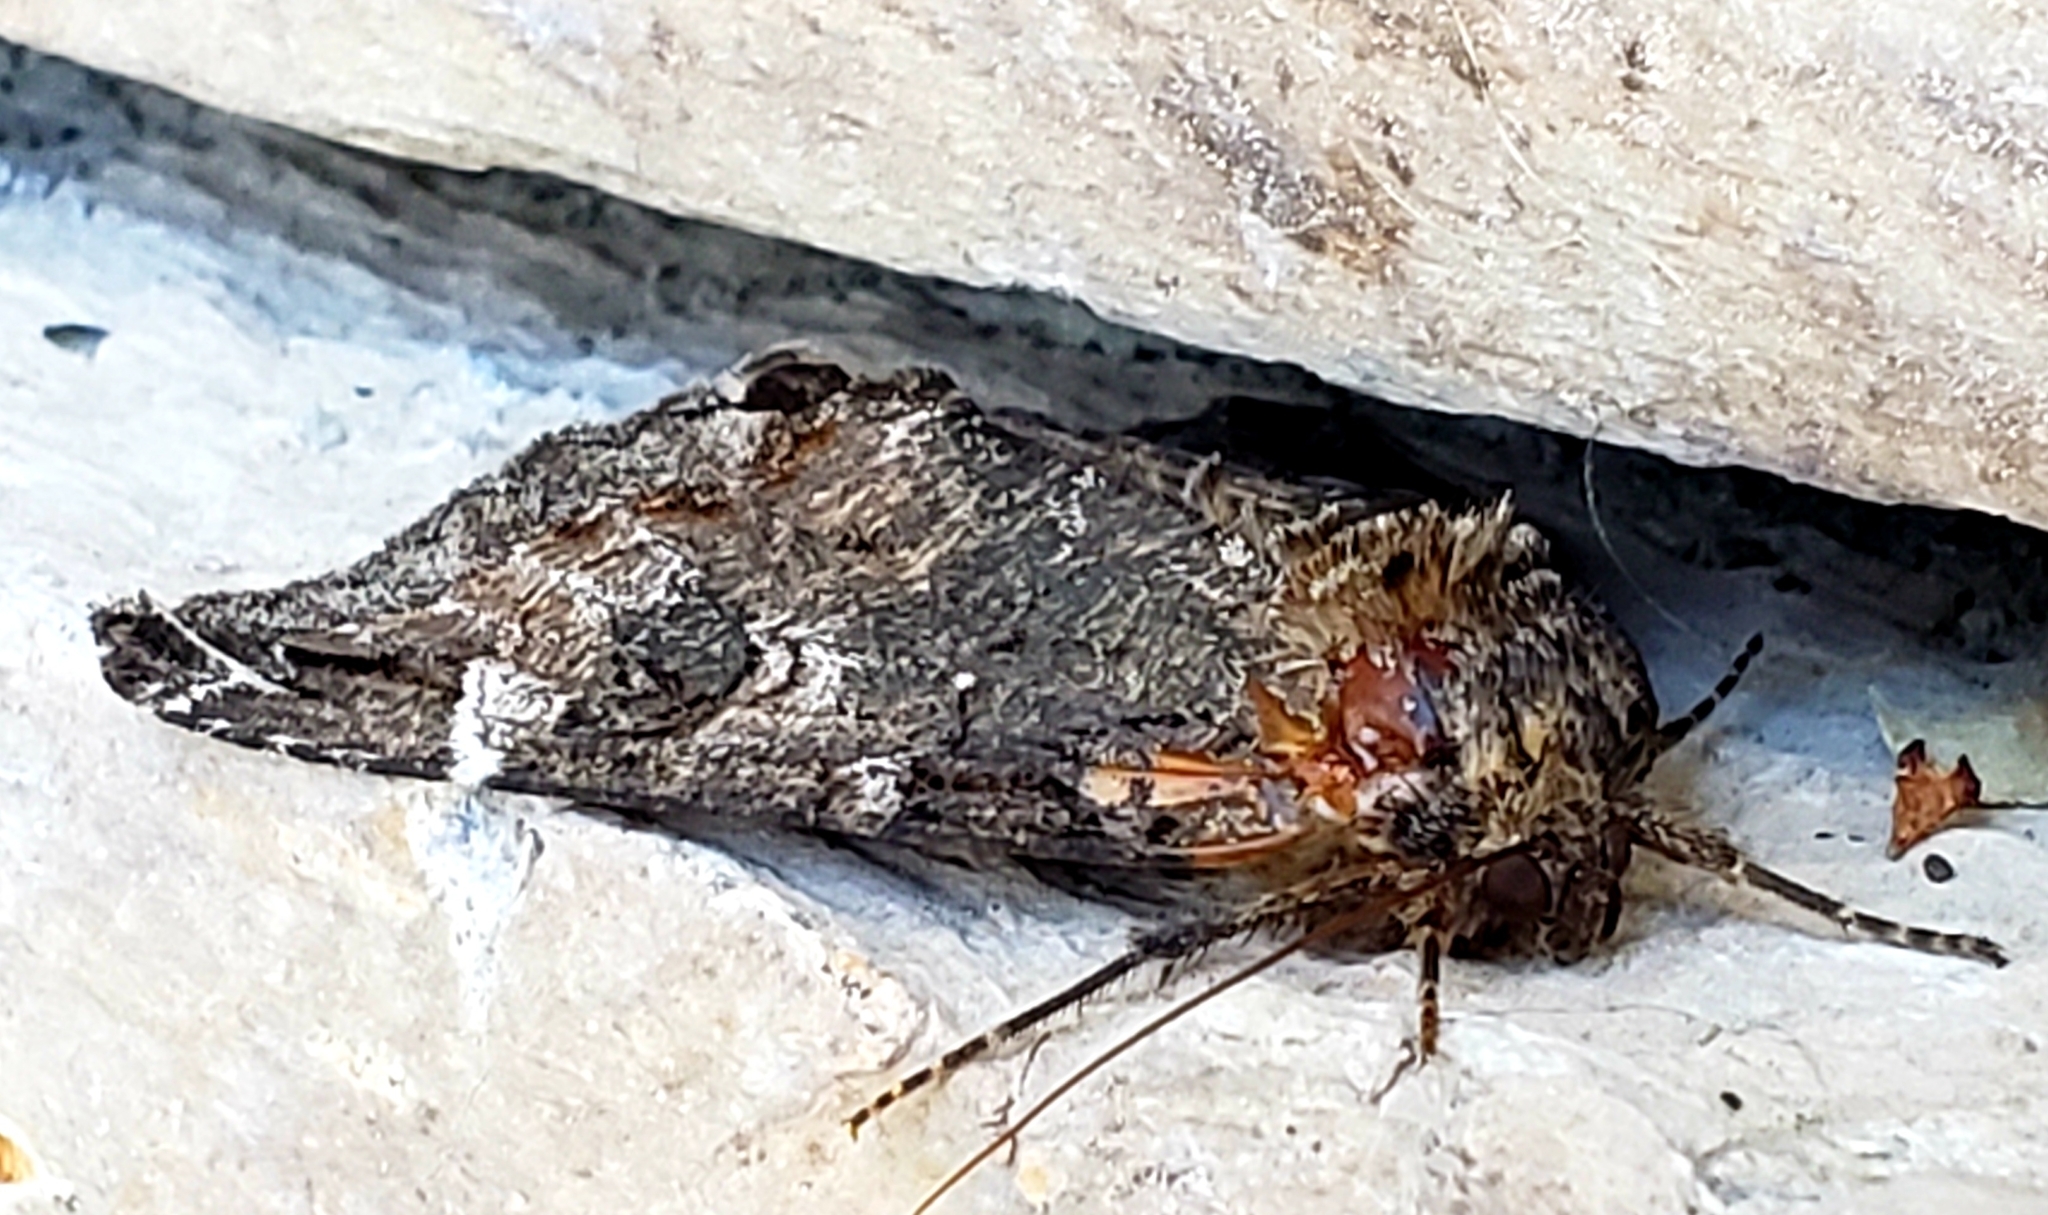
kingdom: Animalia
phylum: Arthropoda
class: Insecta
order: Lepidoptera
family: Erebidae
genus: Euparthenos
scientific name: Euparthenos nubilis
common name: Locust underwing
